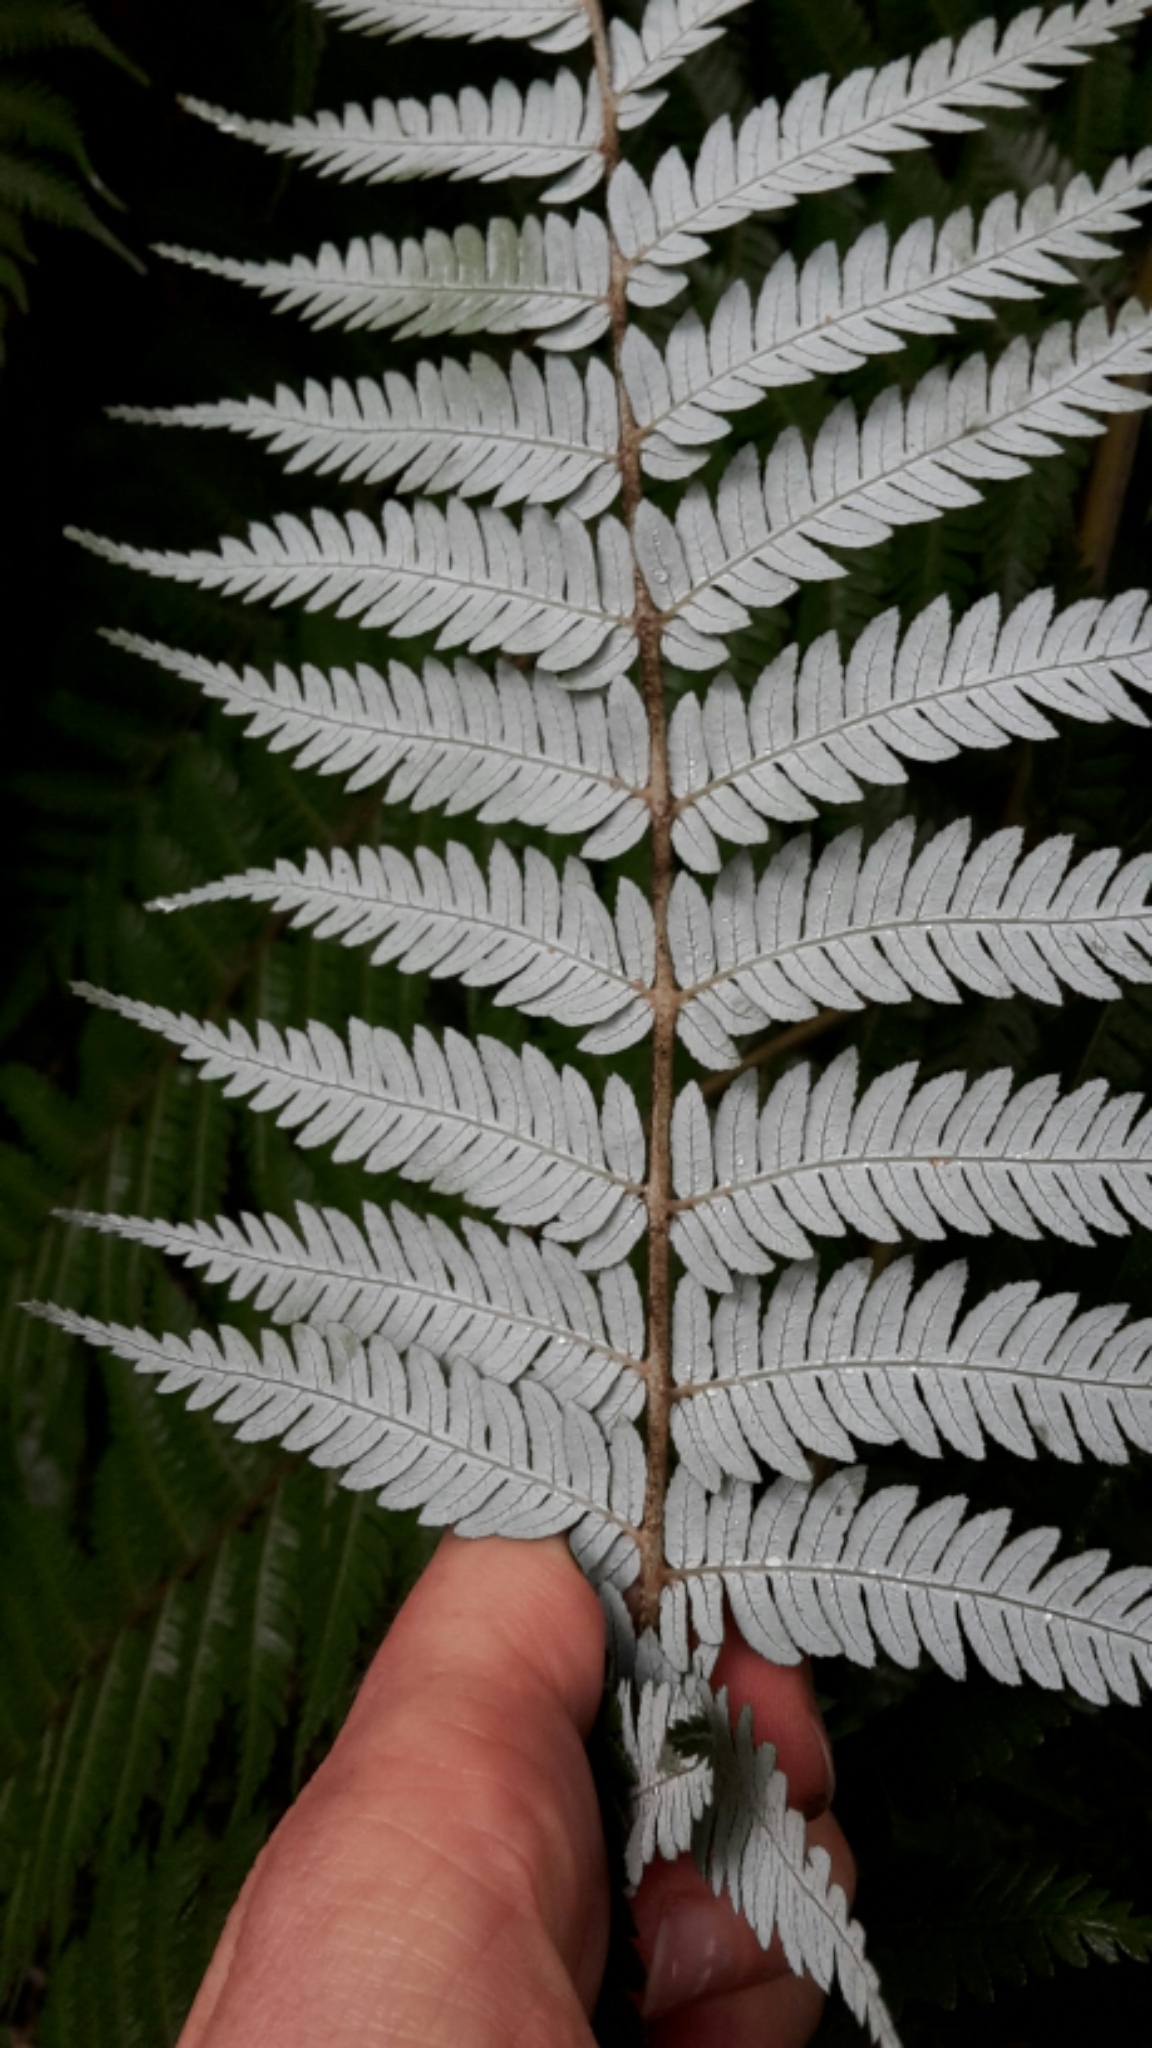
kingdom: Plantae
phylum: Tracheophyta
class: Polypodiopsida
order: Cyatheales
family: Cyatheaceae
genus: Alsophila
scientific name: Alsophila dealbata
